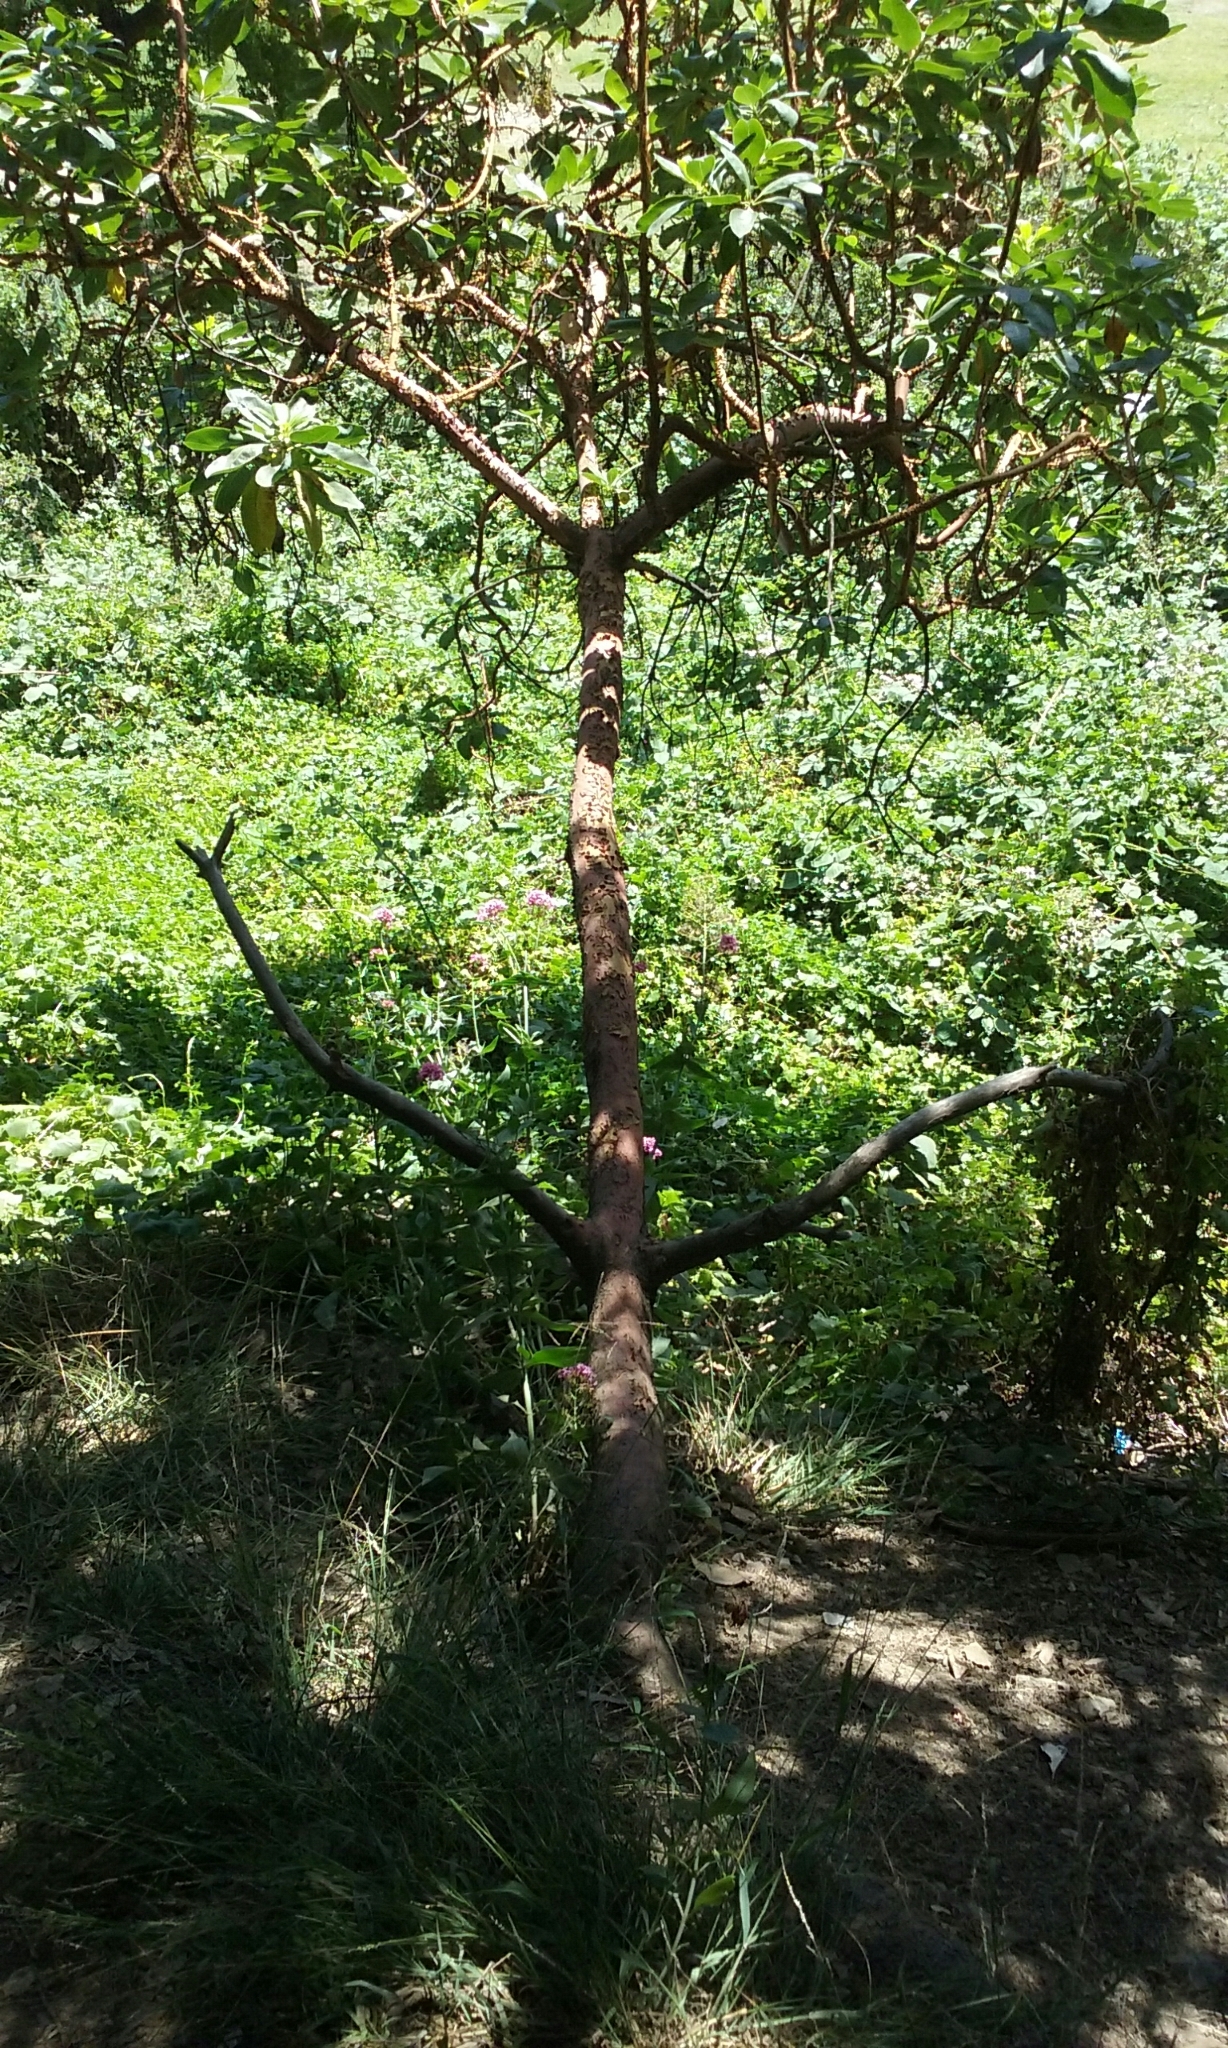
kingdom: Plantae
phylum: Tracheophyta
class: Magnoliopsida
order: Ericales
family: Ericaceae
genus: Arbutus
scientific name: Arbutus menziesii
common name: Pacific madrone
